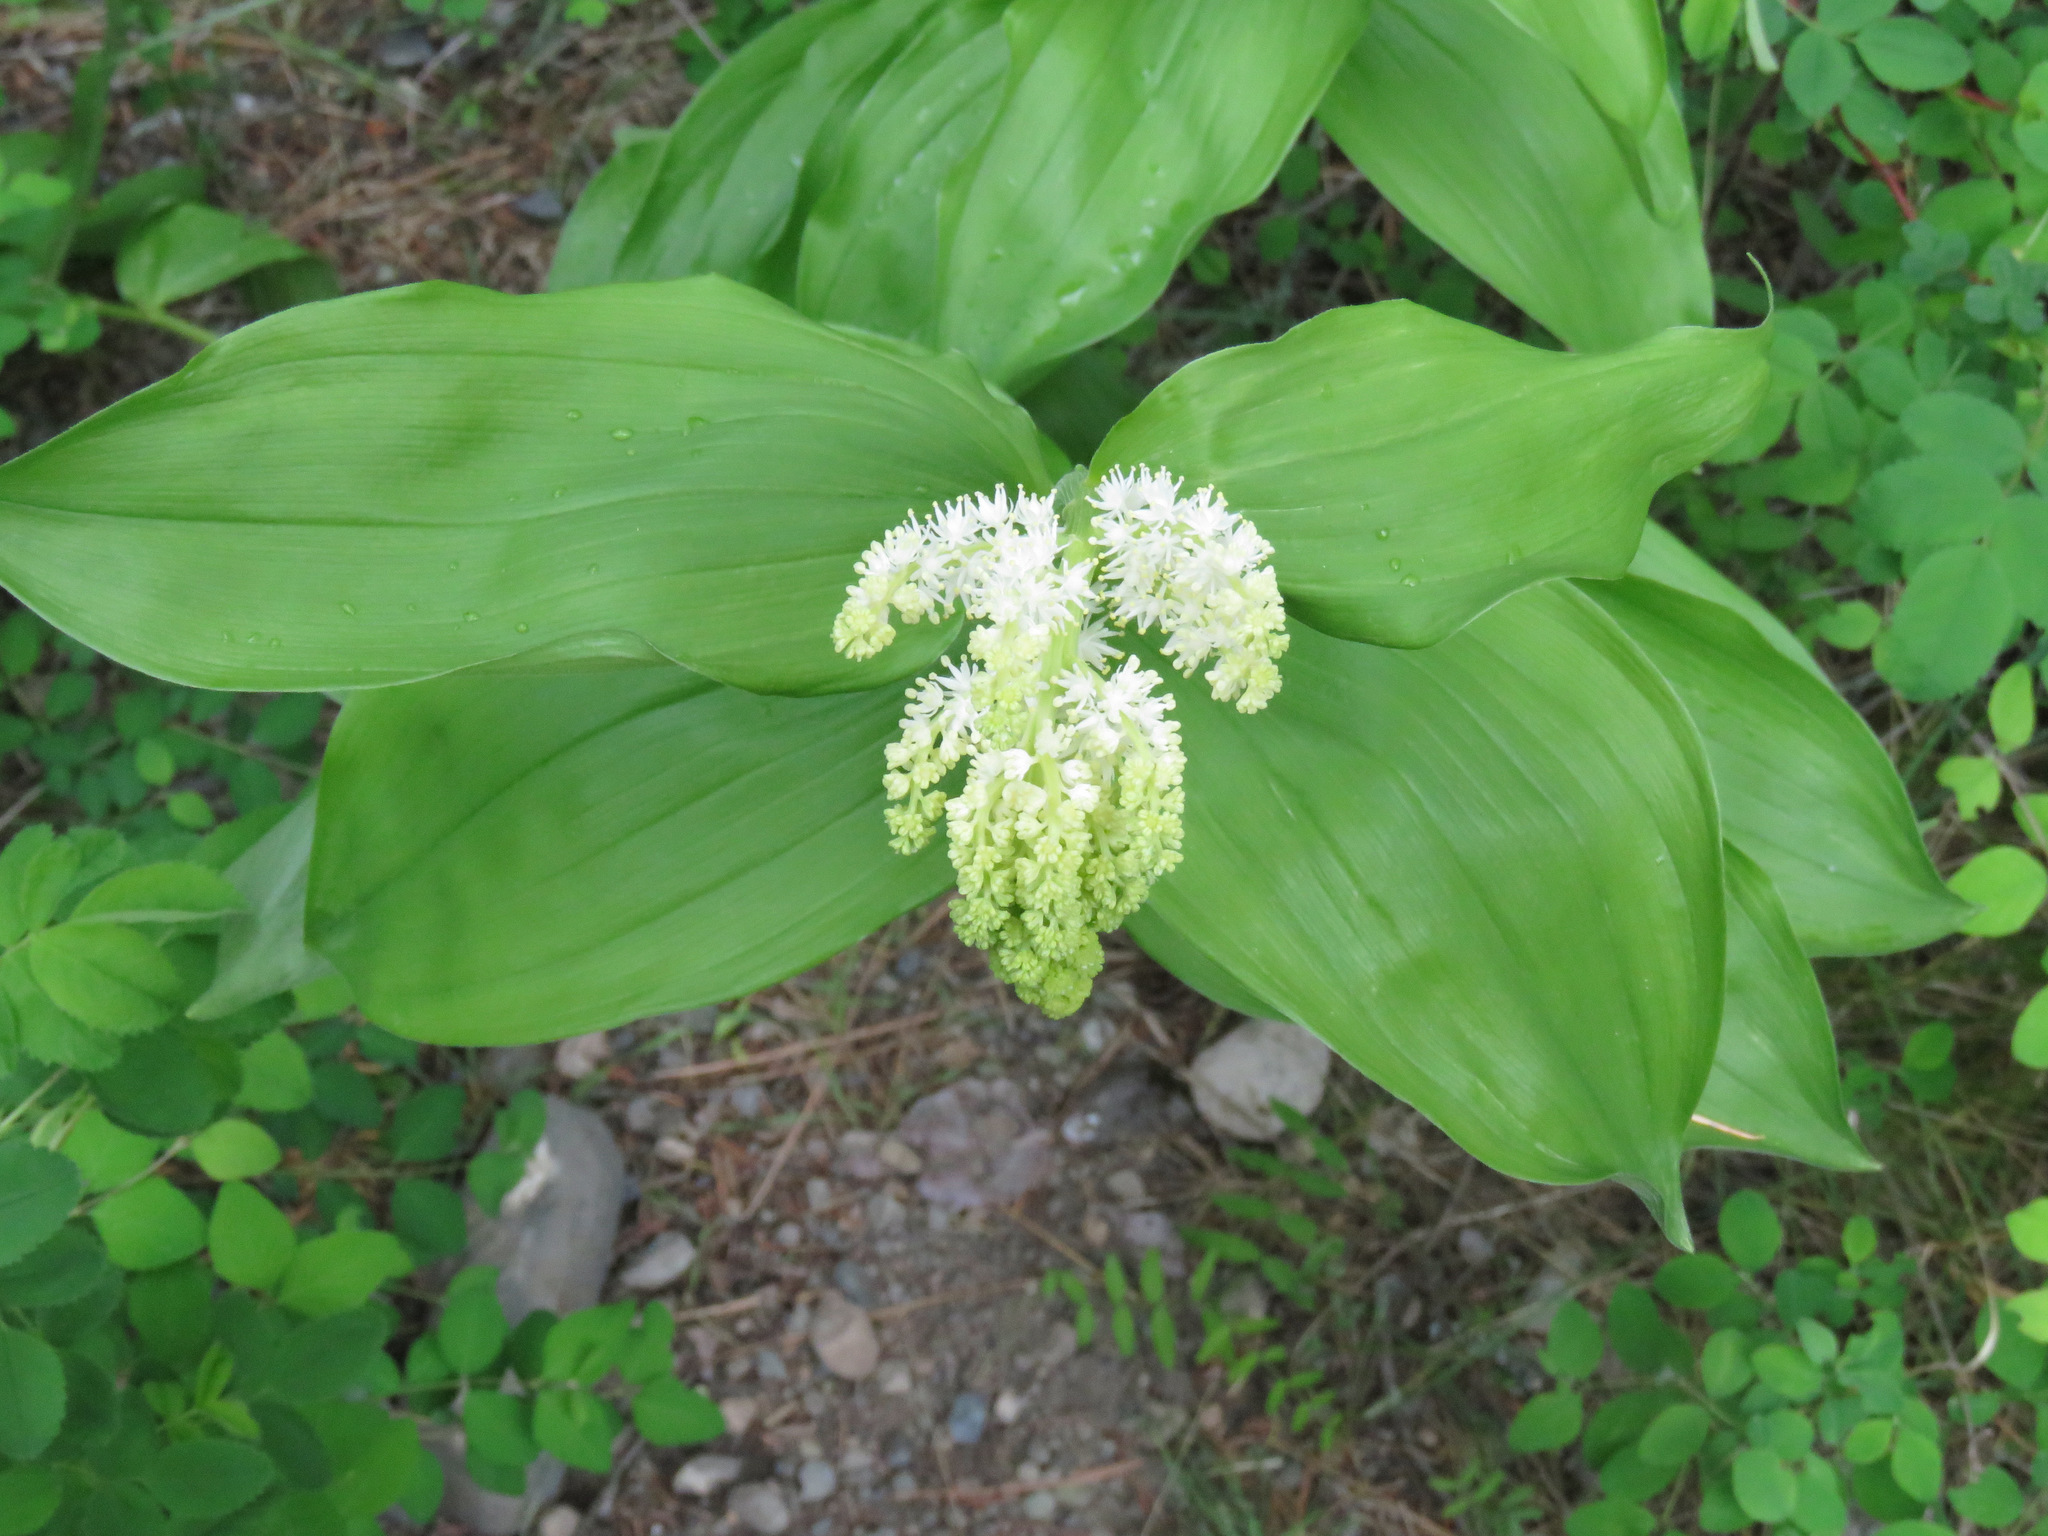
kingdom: Plantae
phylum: Tracheophyta
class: Liliopsida
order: Asparagales
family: Asparagaceae
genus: Maianthemum
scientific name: Maianthemum racemosum
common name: False spikenard
